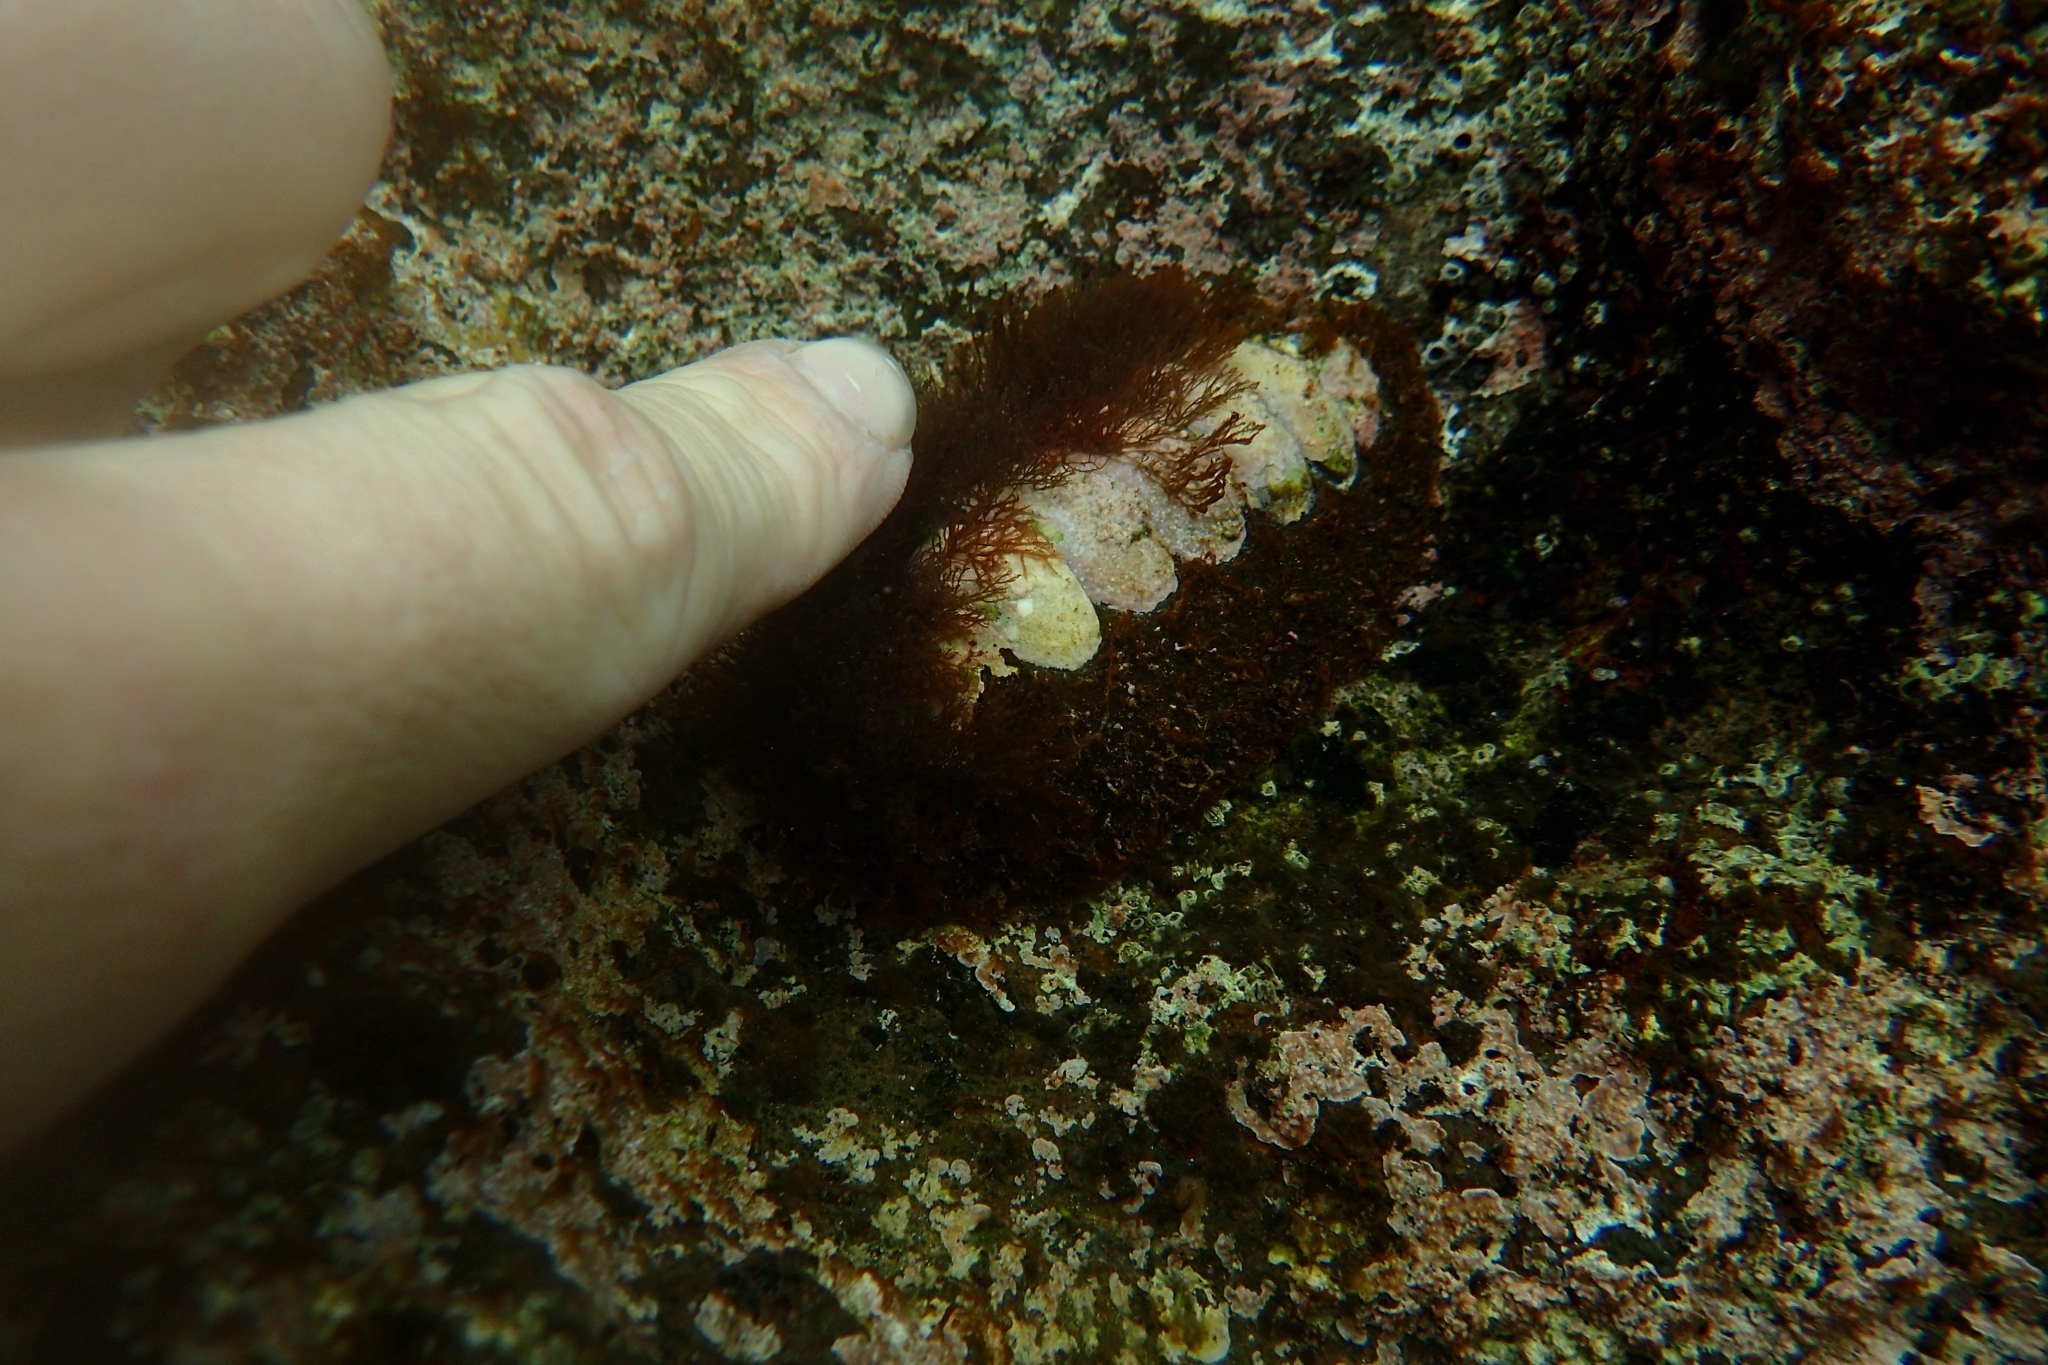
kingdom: Animalia
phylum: Mollusca
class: Polyplacophora
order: Callochitonida
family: Callochitonidae
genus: Eudoxochiton
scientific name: Eudoxochiton nobilis
